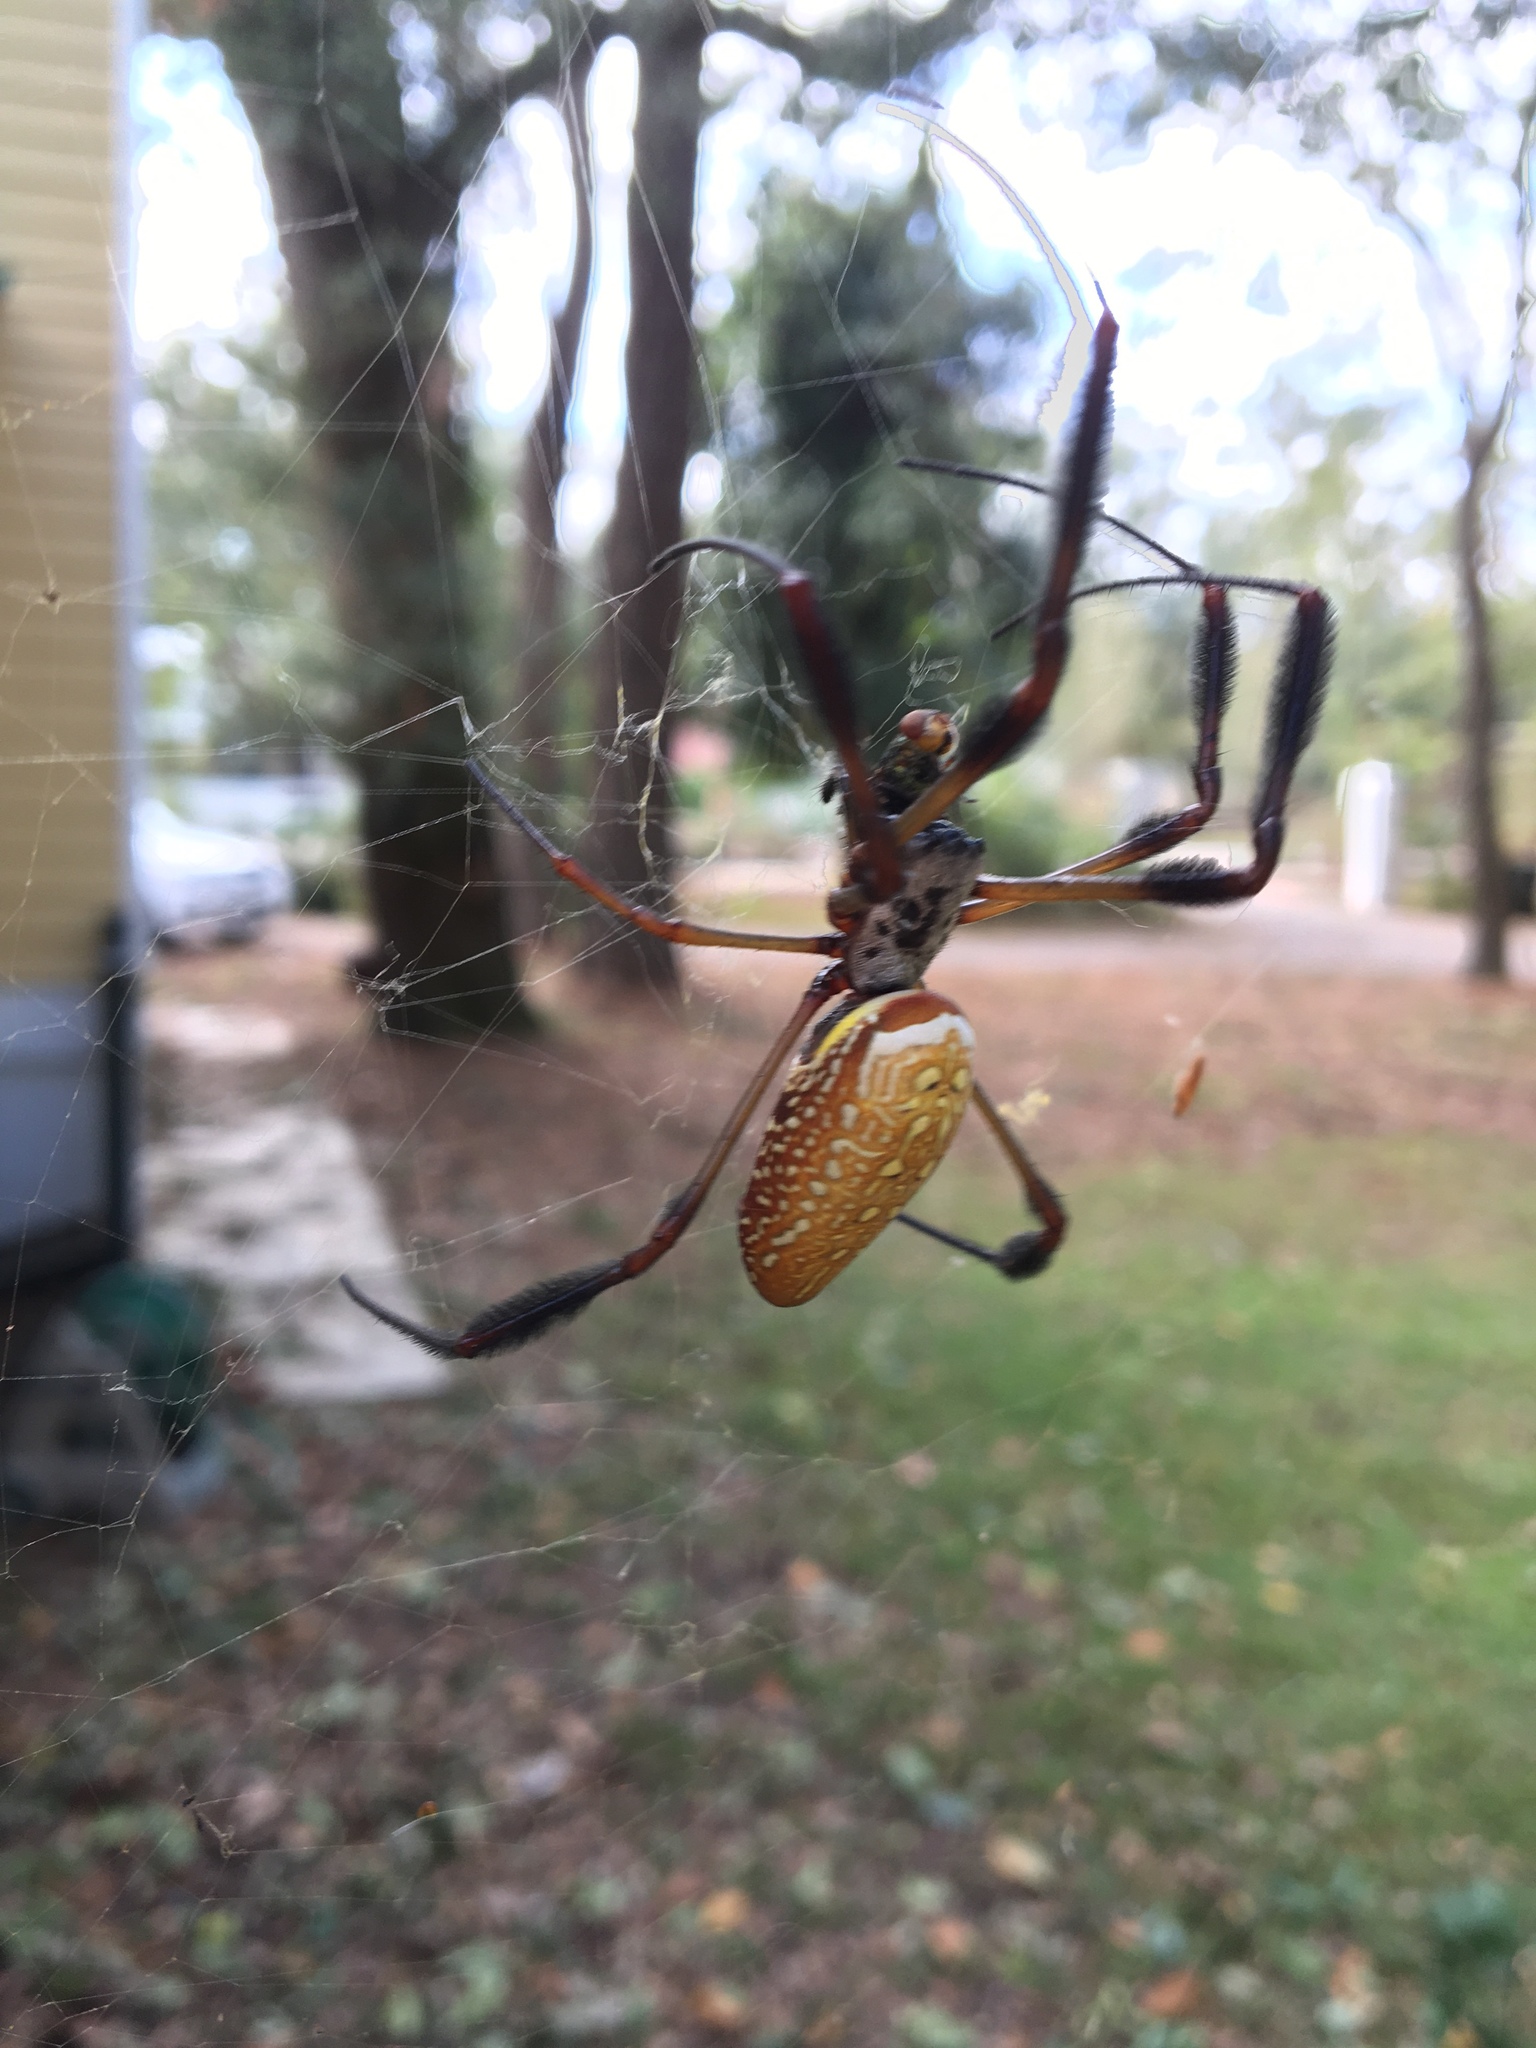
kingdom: Animalia
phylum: Arthropoda
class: Arachnida
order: Araneae
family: Araneidae
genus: Trichonephila
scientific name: Trichonephila clavipes
